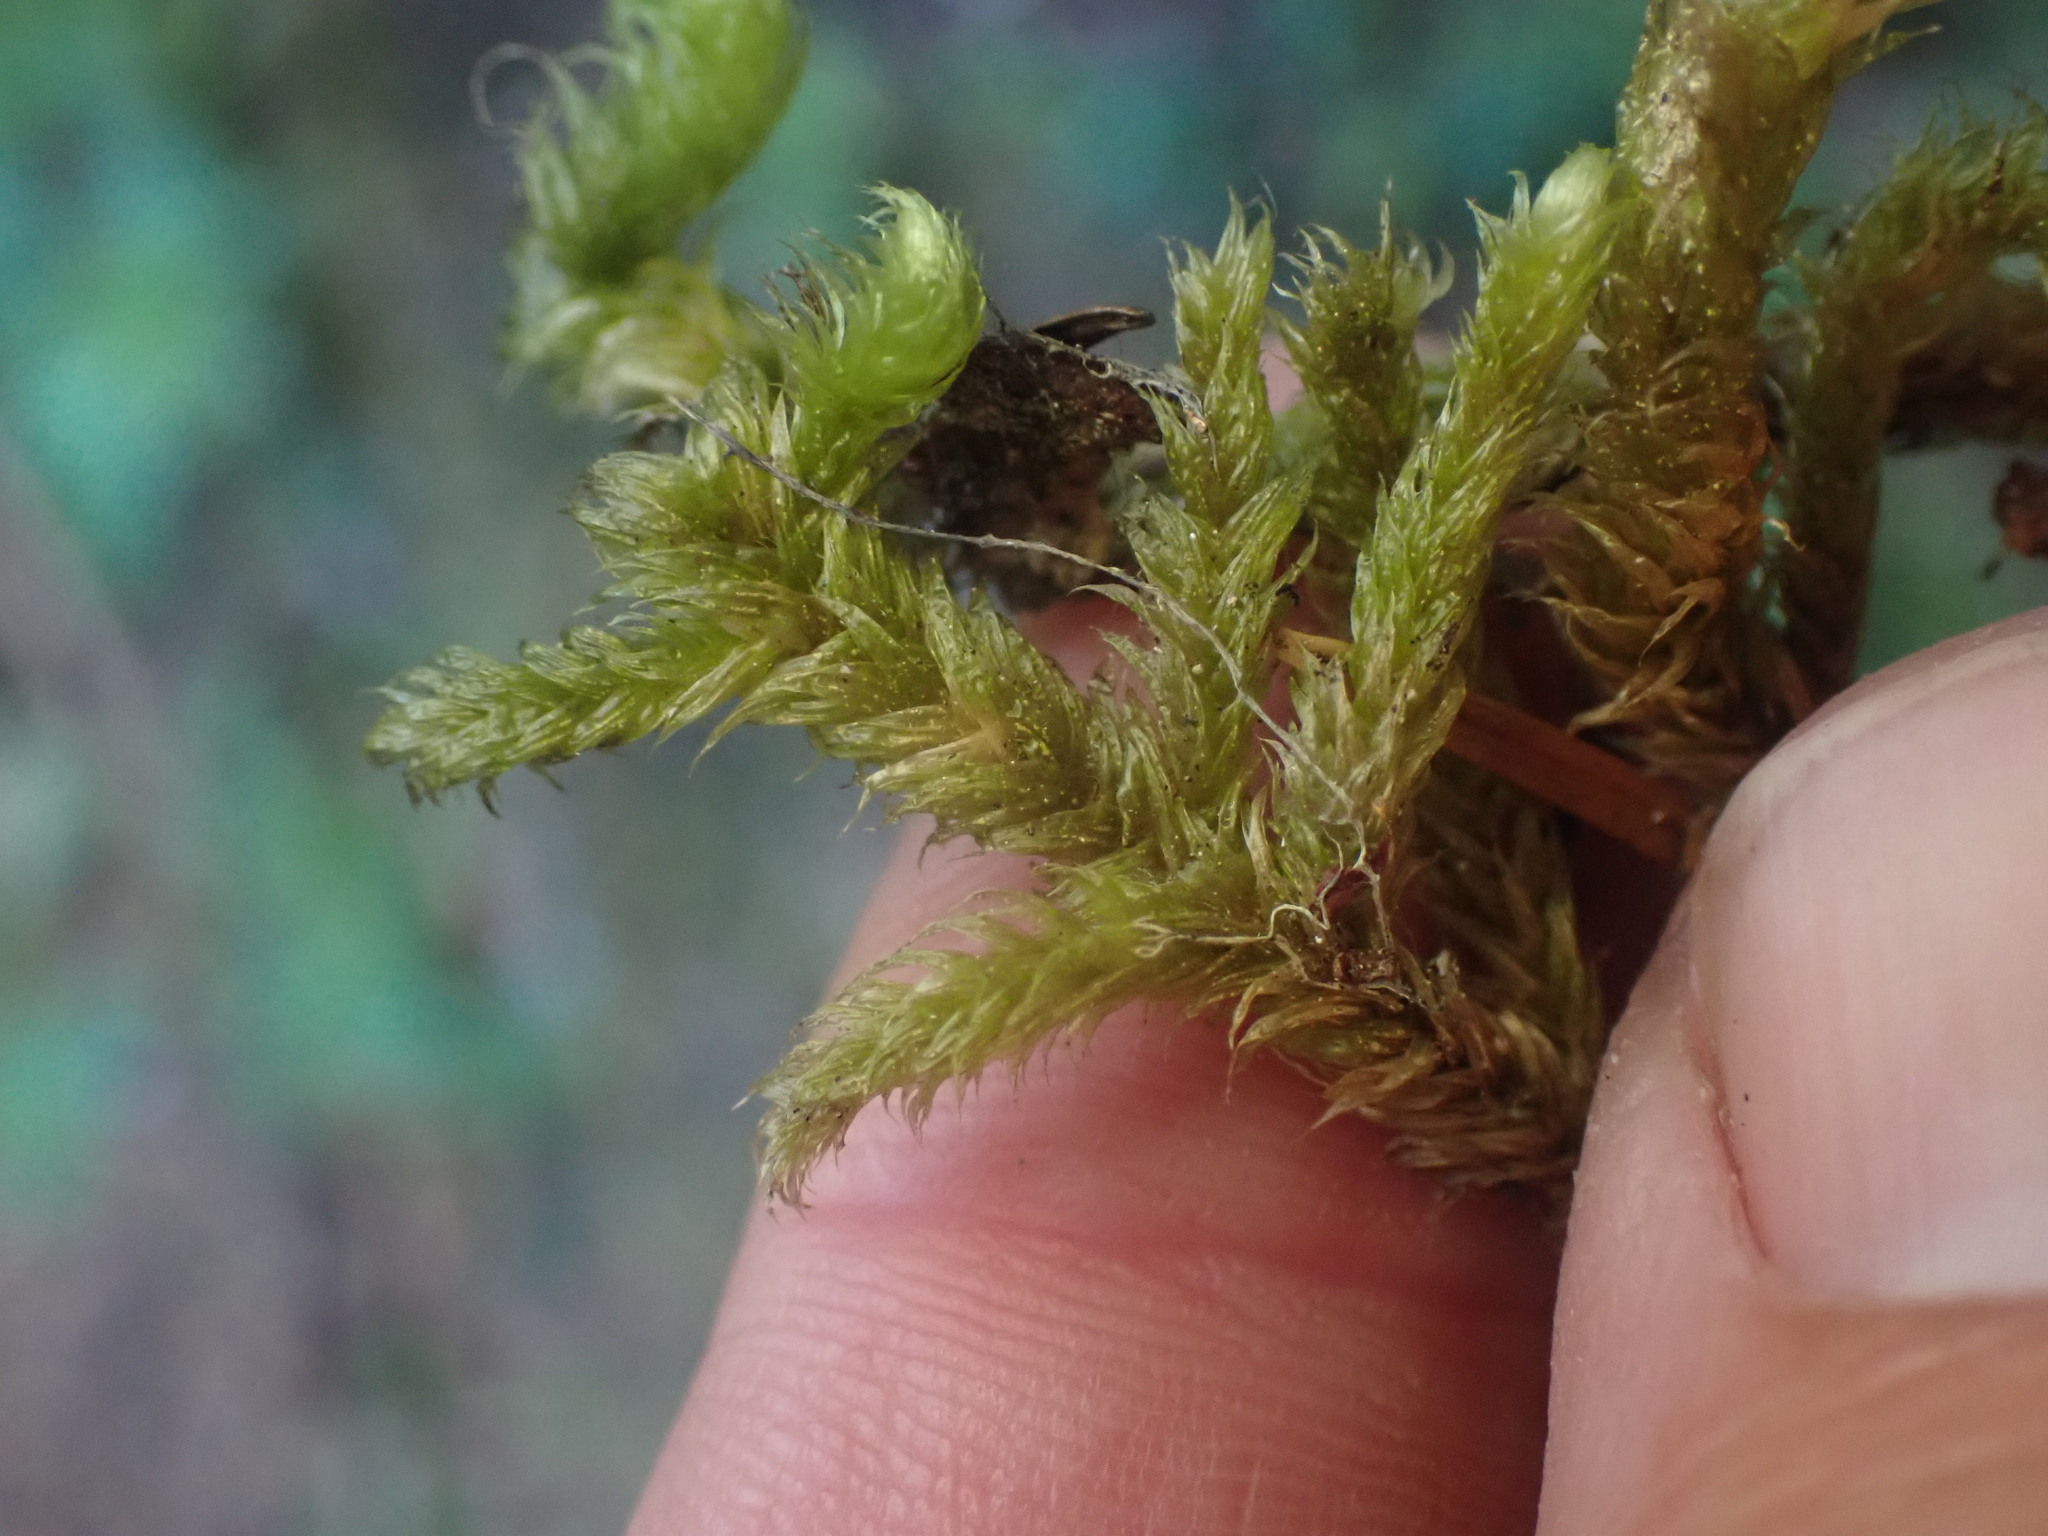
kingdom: Plantae
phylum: Bryophyta
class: Bryopsida
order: Hypnales
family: Hylocomiaceae
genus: Rhytidiopsis
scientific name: Rhytidiopsis robusta
